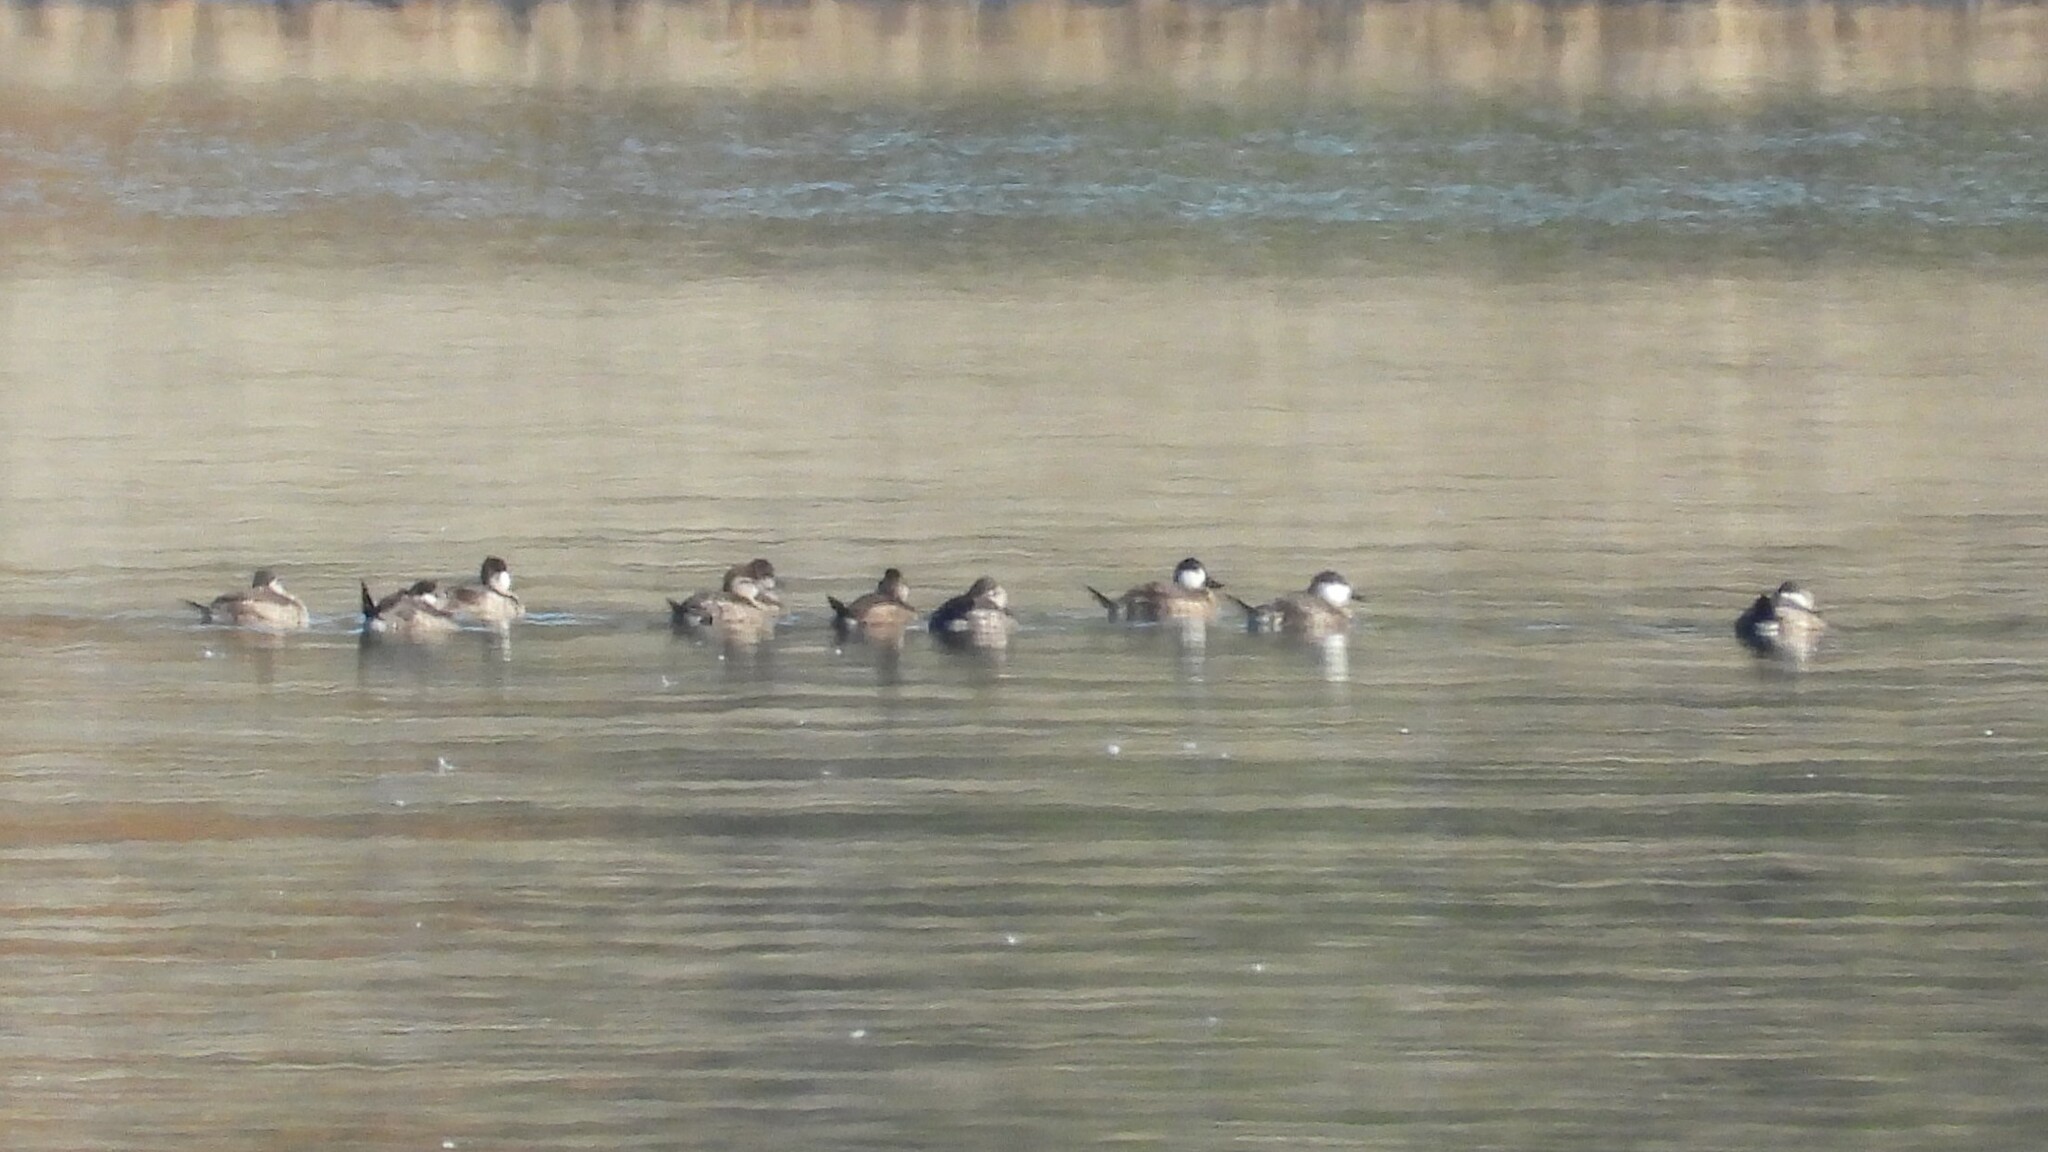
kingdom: Animalia
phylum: Chordata
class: Aves
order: Anseriformes
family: Anatidae
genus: Oxyura
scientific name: Oxyura jamaicensis
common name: Ruddy duck
